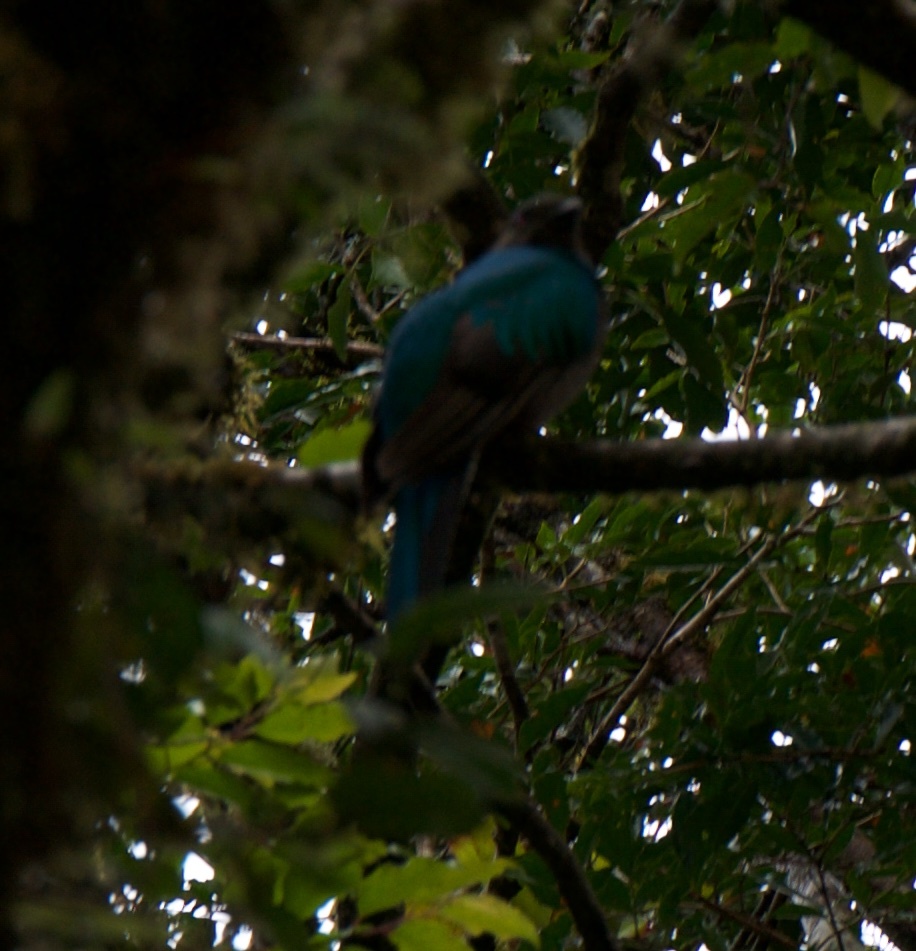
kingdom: Animalia
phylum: Chordata
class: Aves
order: Trogoniformes
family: Trogonidae
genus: Pharomachrus
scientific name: Pharomachrus mocinno
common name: Resplendent quetzal
